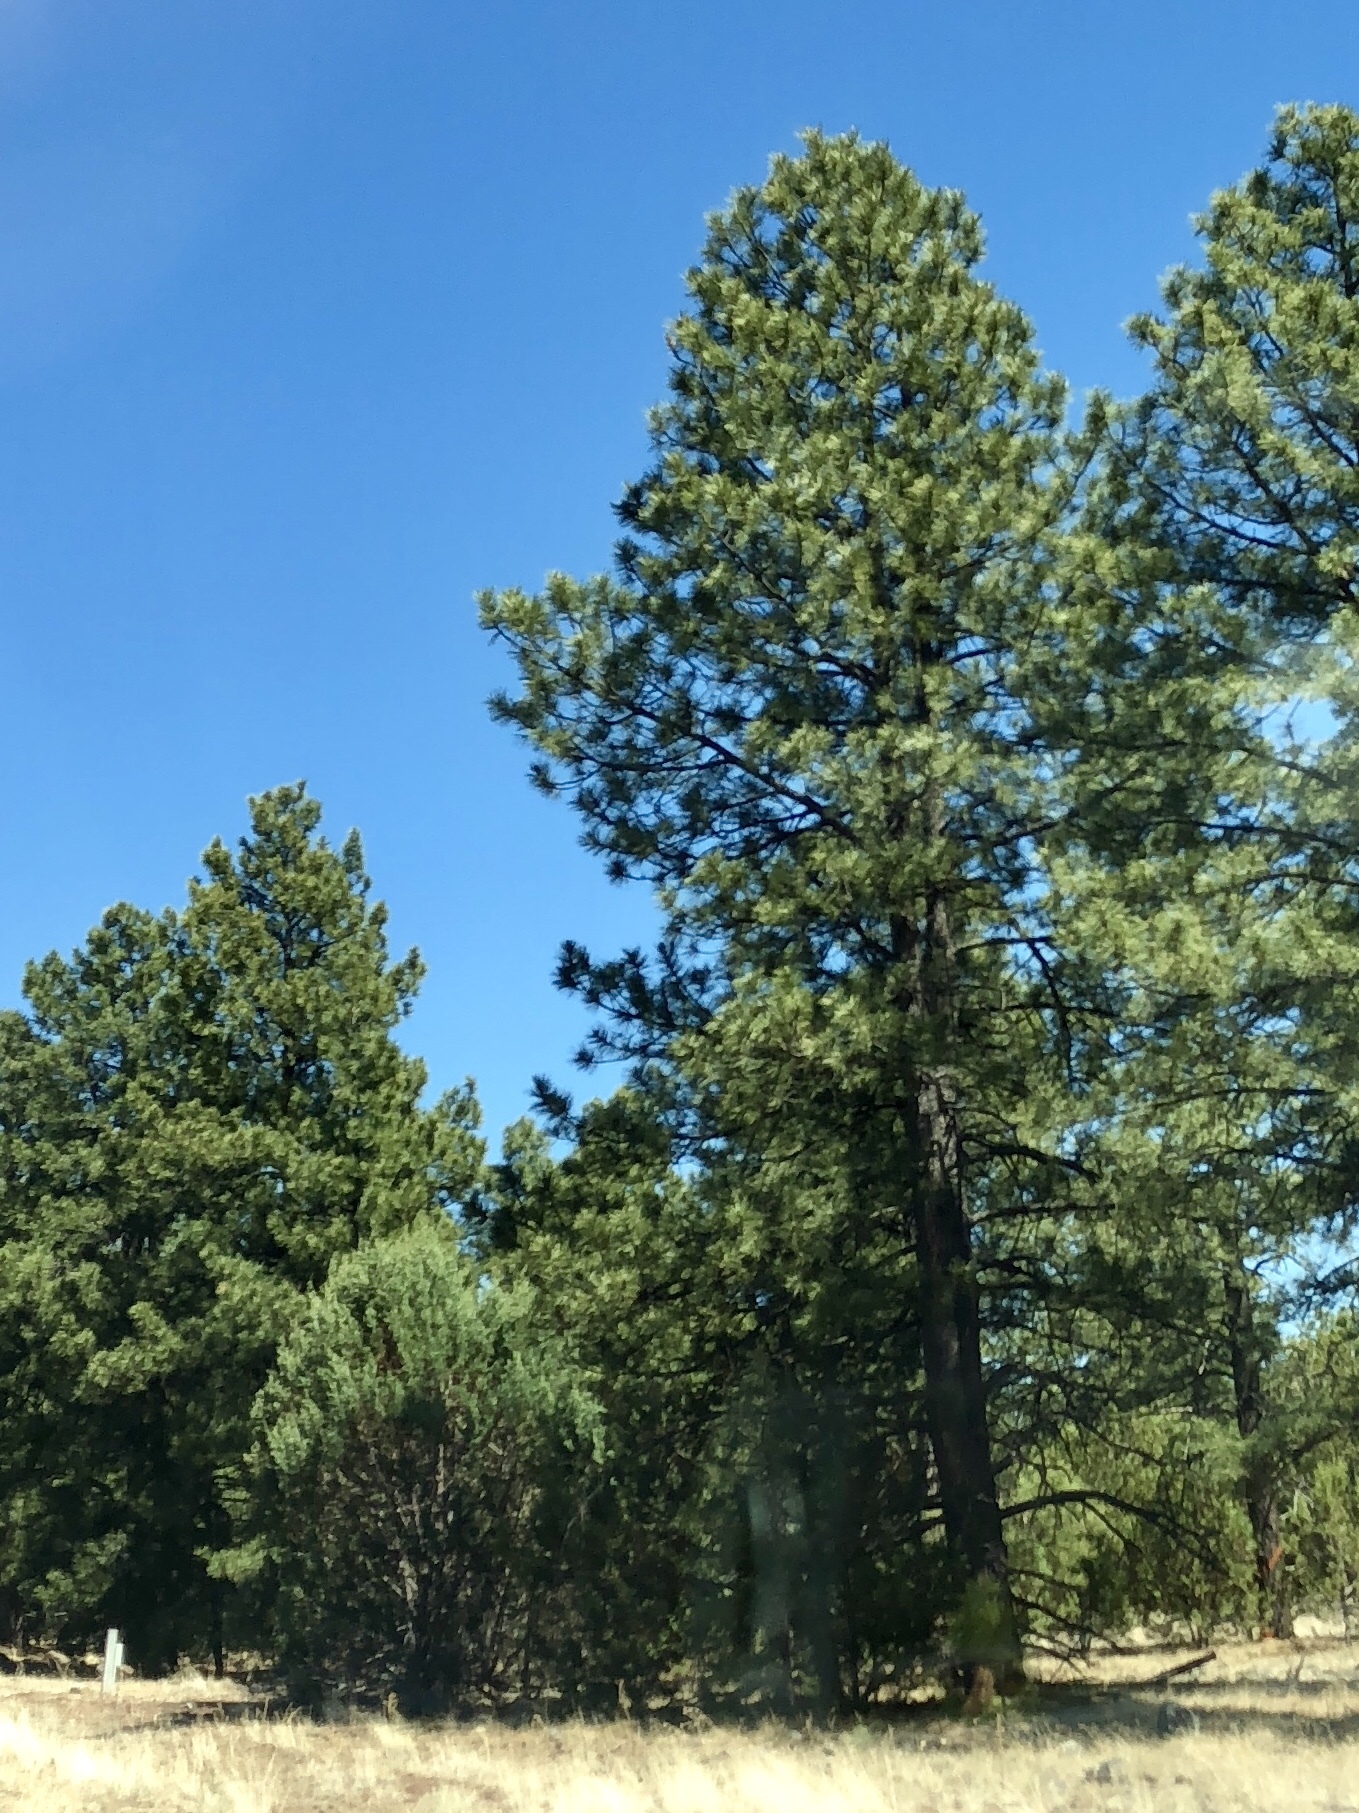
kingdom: Plantae
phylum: Tracheophyta
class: Pinopsida
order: Pinales
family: Pinaceae
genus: Pinus
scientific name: Pinus ponderosa
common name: Western yellow-pine
